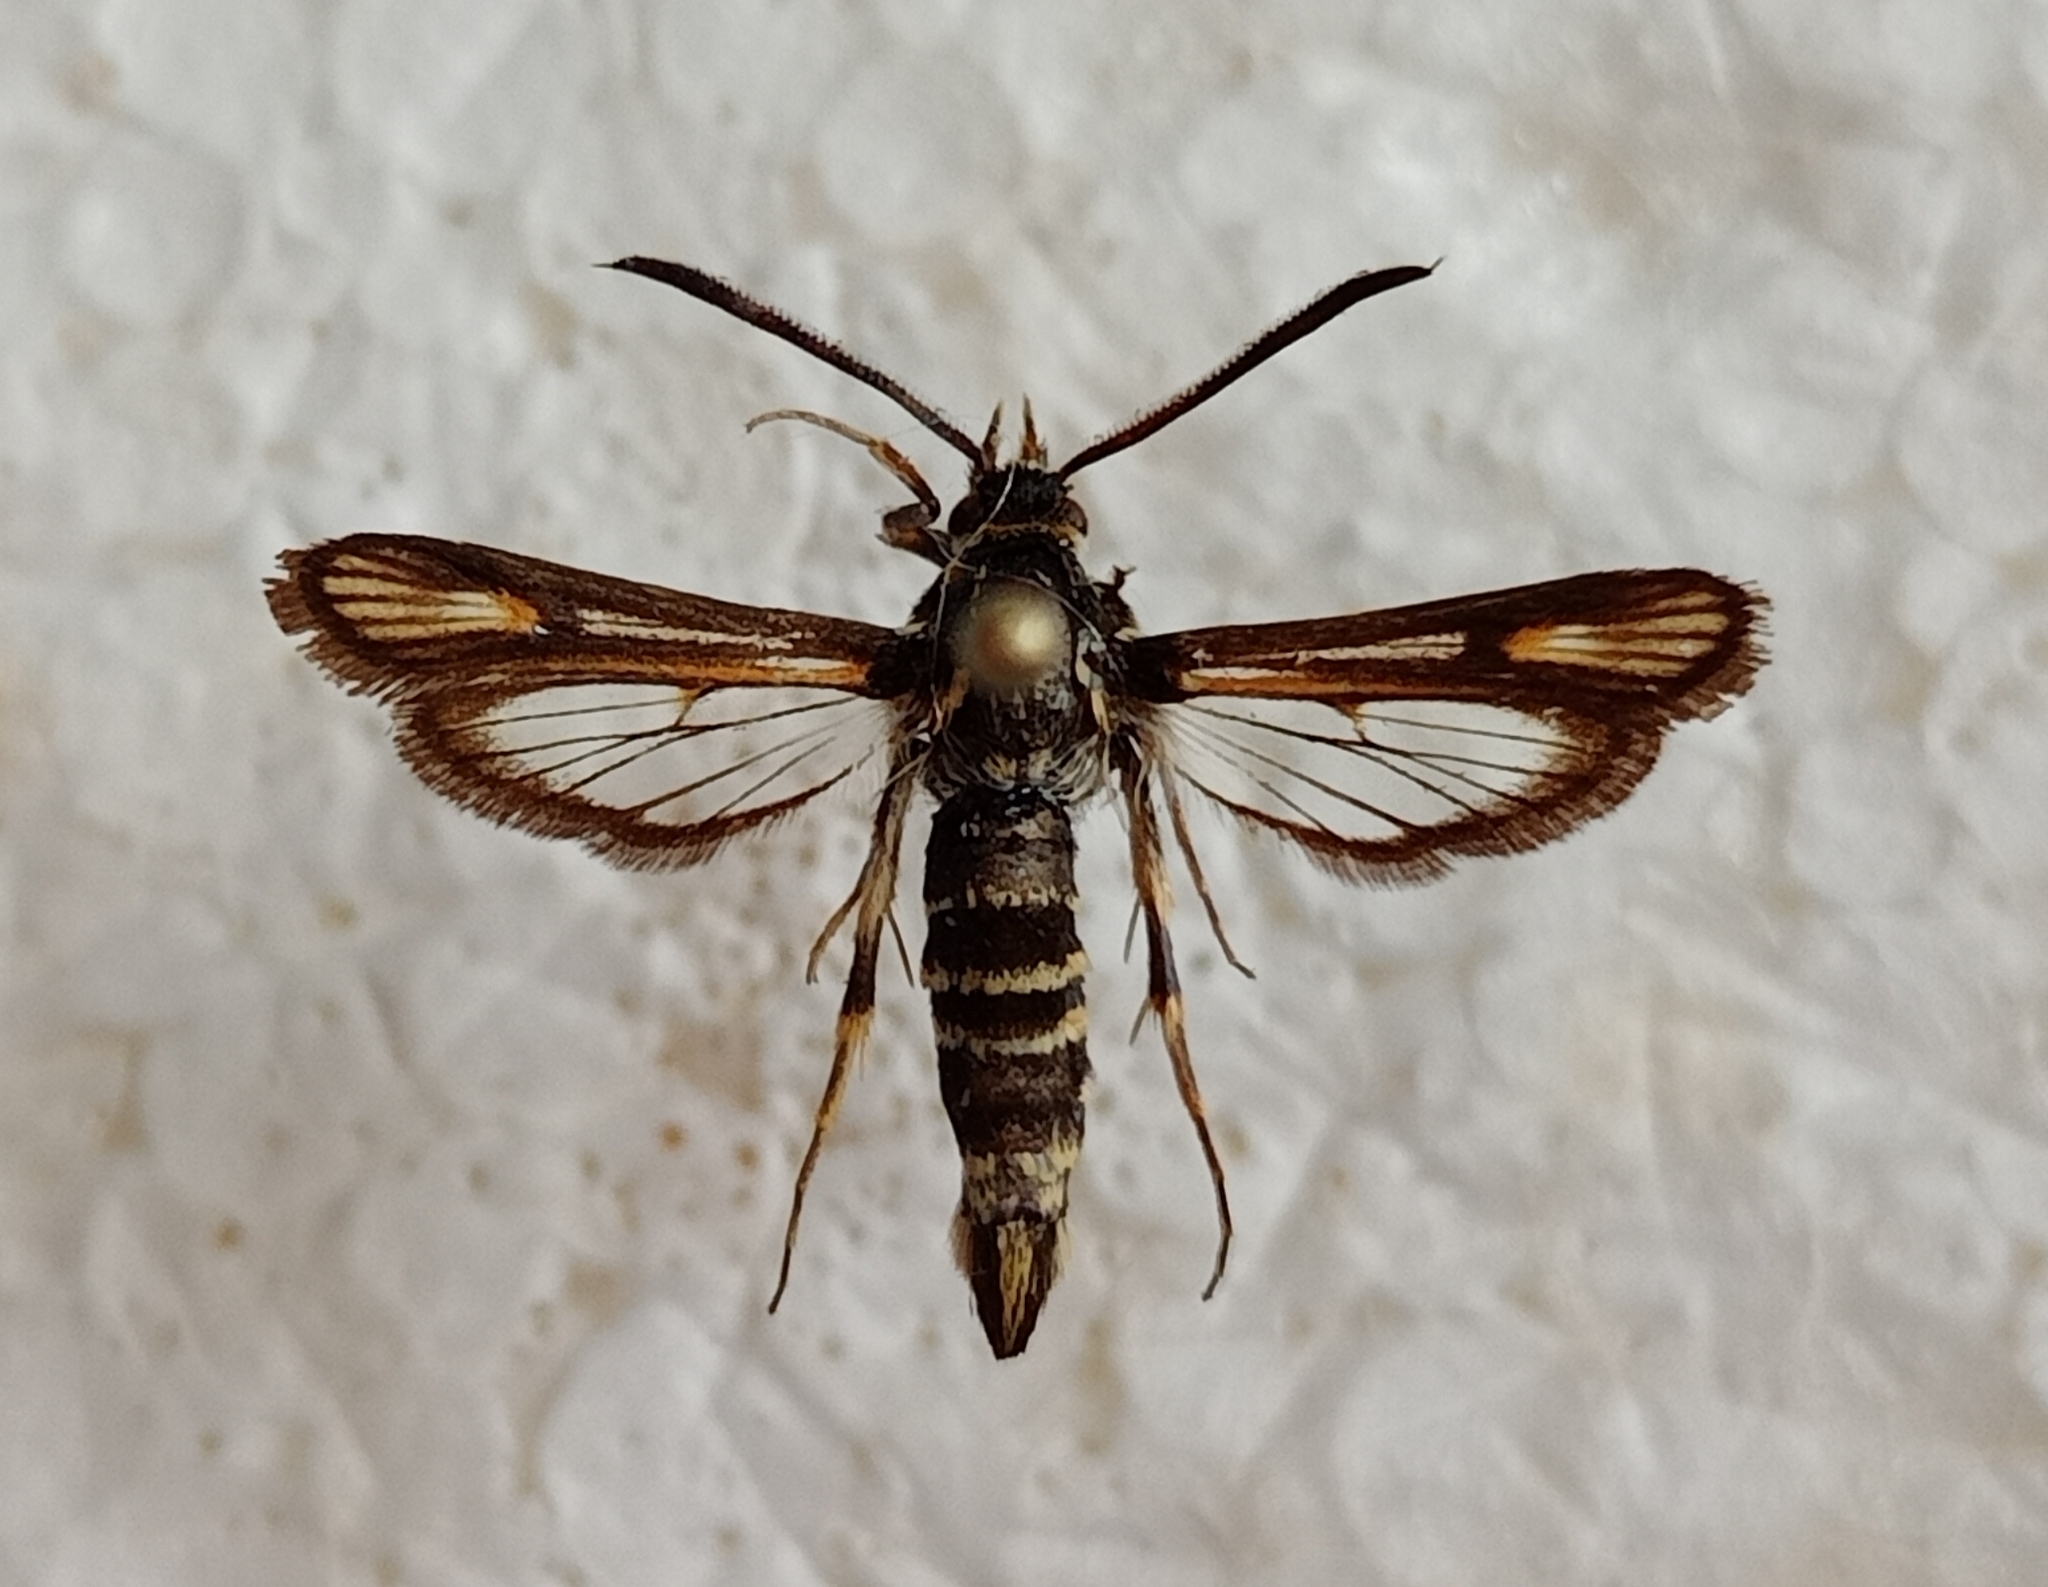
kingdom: Animalia
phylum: Arthropoda
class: Insecta
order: Lepidoptera
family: Sesiidae
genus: Bembecia
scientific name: Bembecia albanensis
